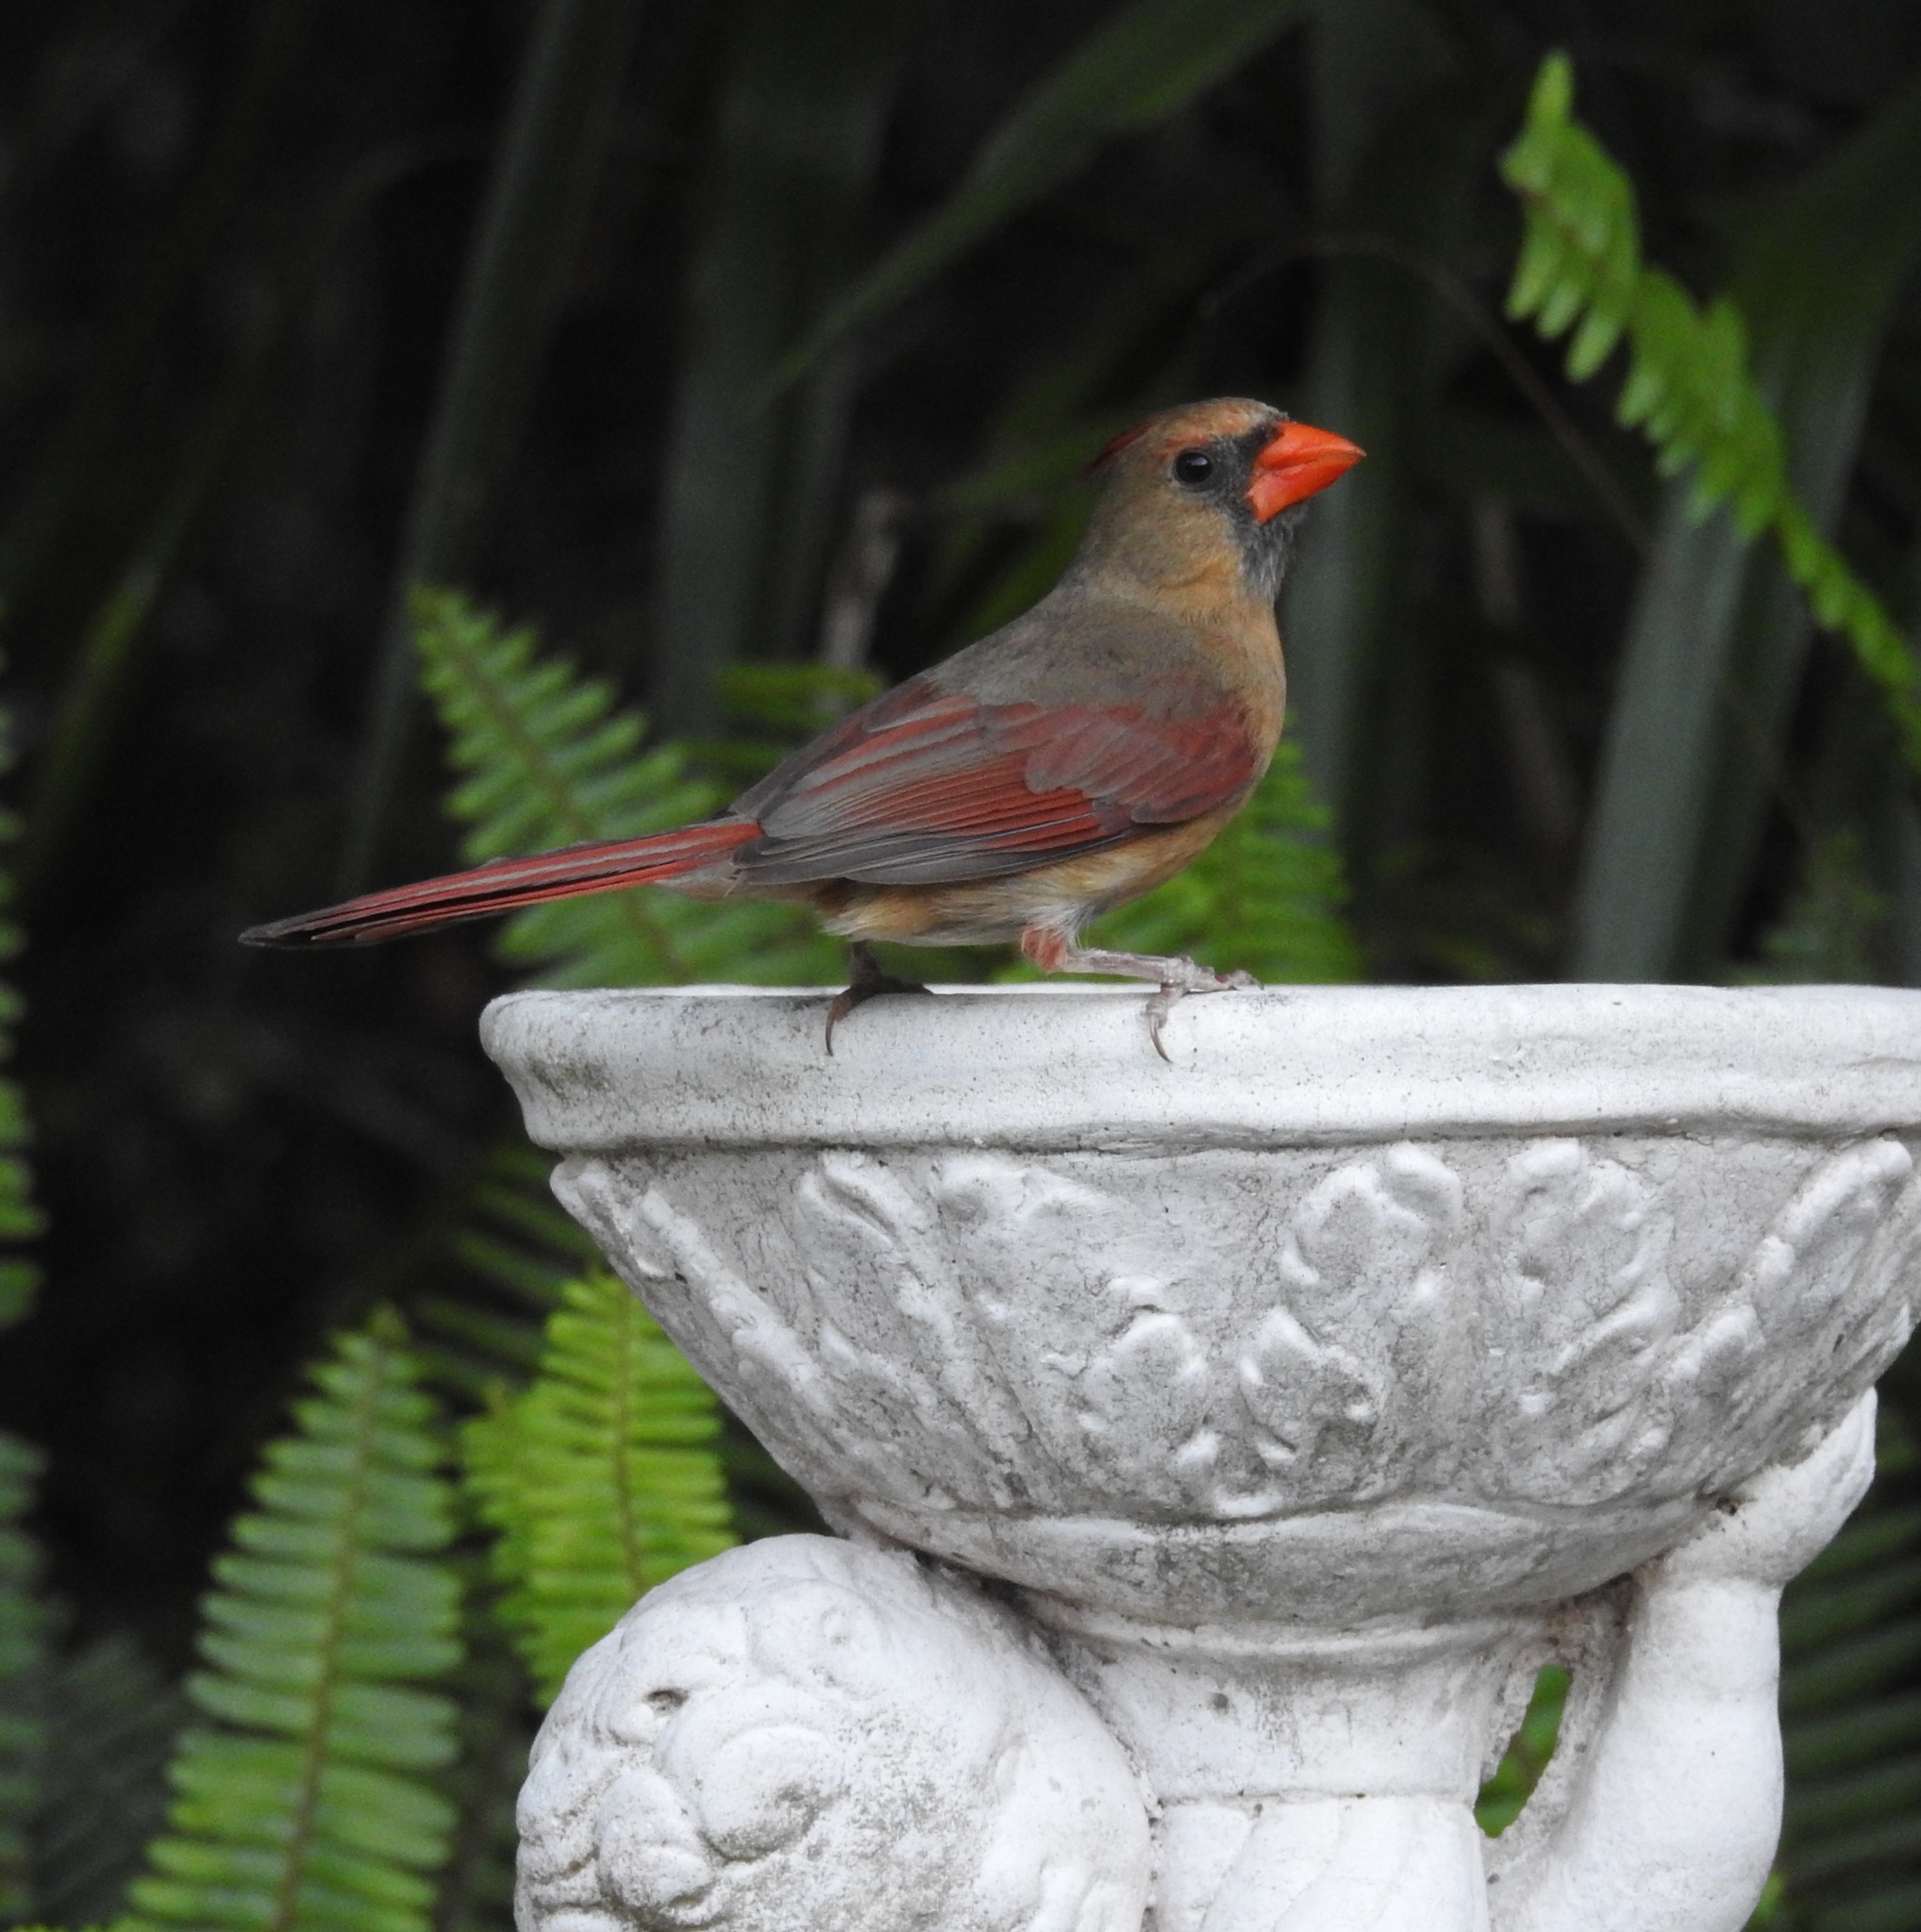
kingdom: Animalia
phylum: Chordata
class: Aves
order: Passeriformes
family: Cardinalidae
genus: Cardinalis
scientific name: Cardinalis cardinalis
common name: Northern cardinal
